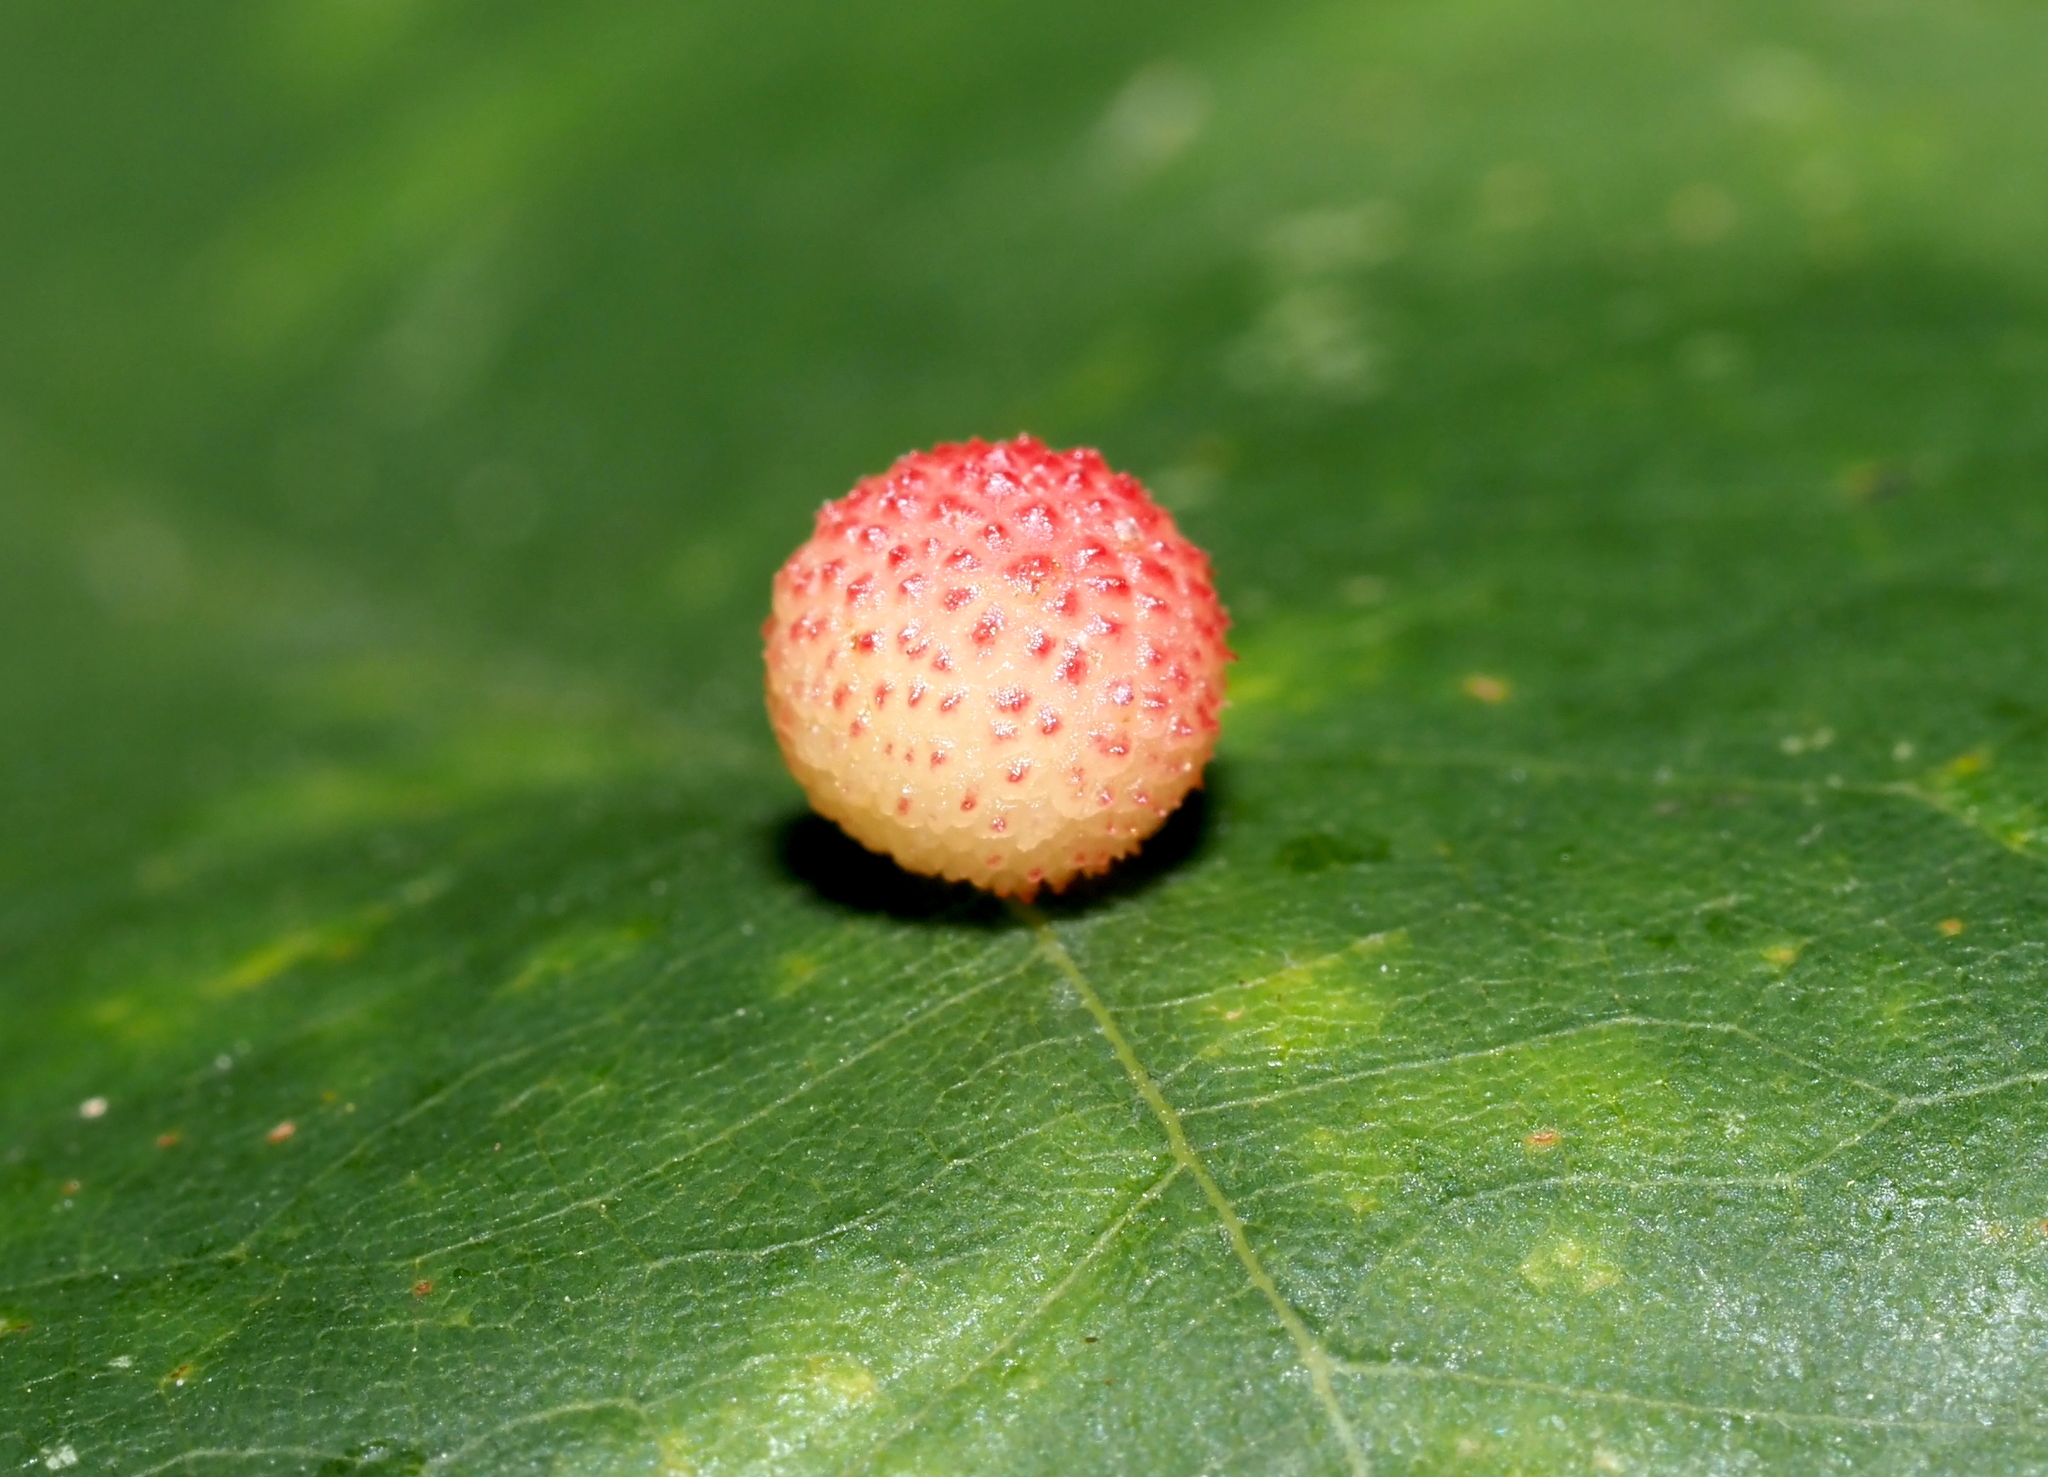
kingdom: Animalia
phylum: Arthropoda
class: Insecta
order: Hymenoptera
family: Cynipidae
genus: Acraspis
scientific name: Acraspis quercushirta
